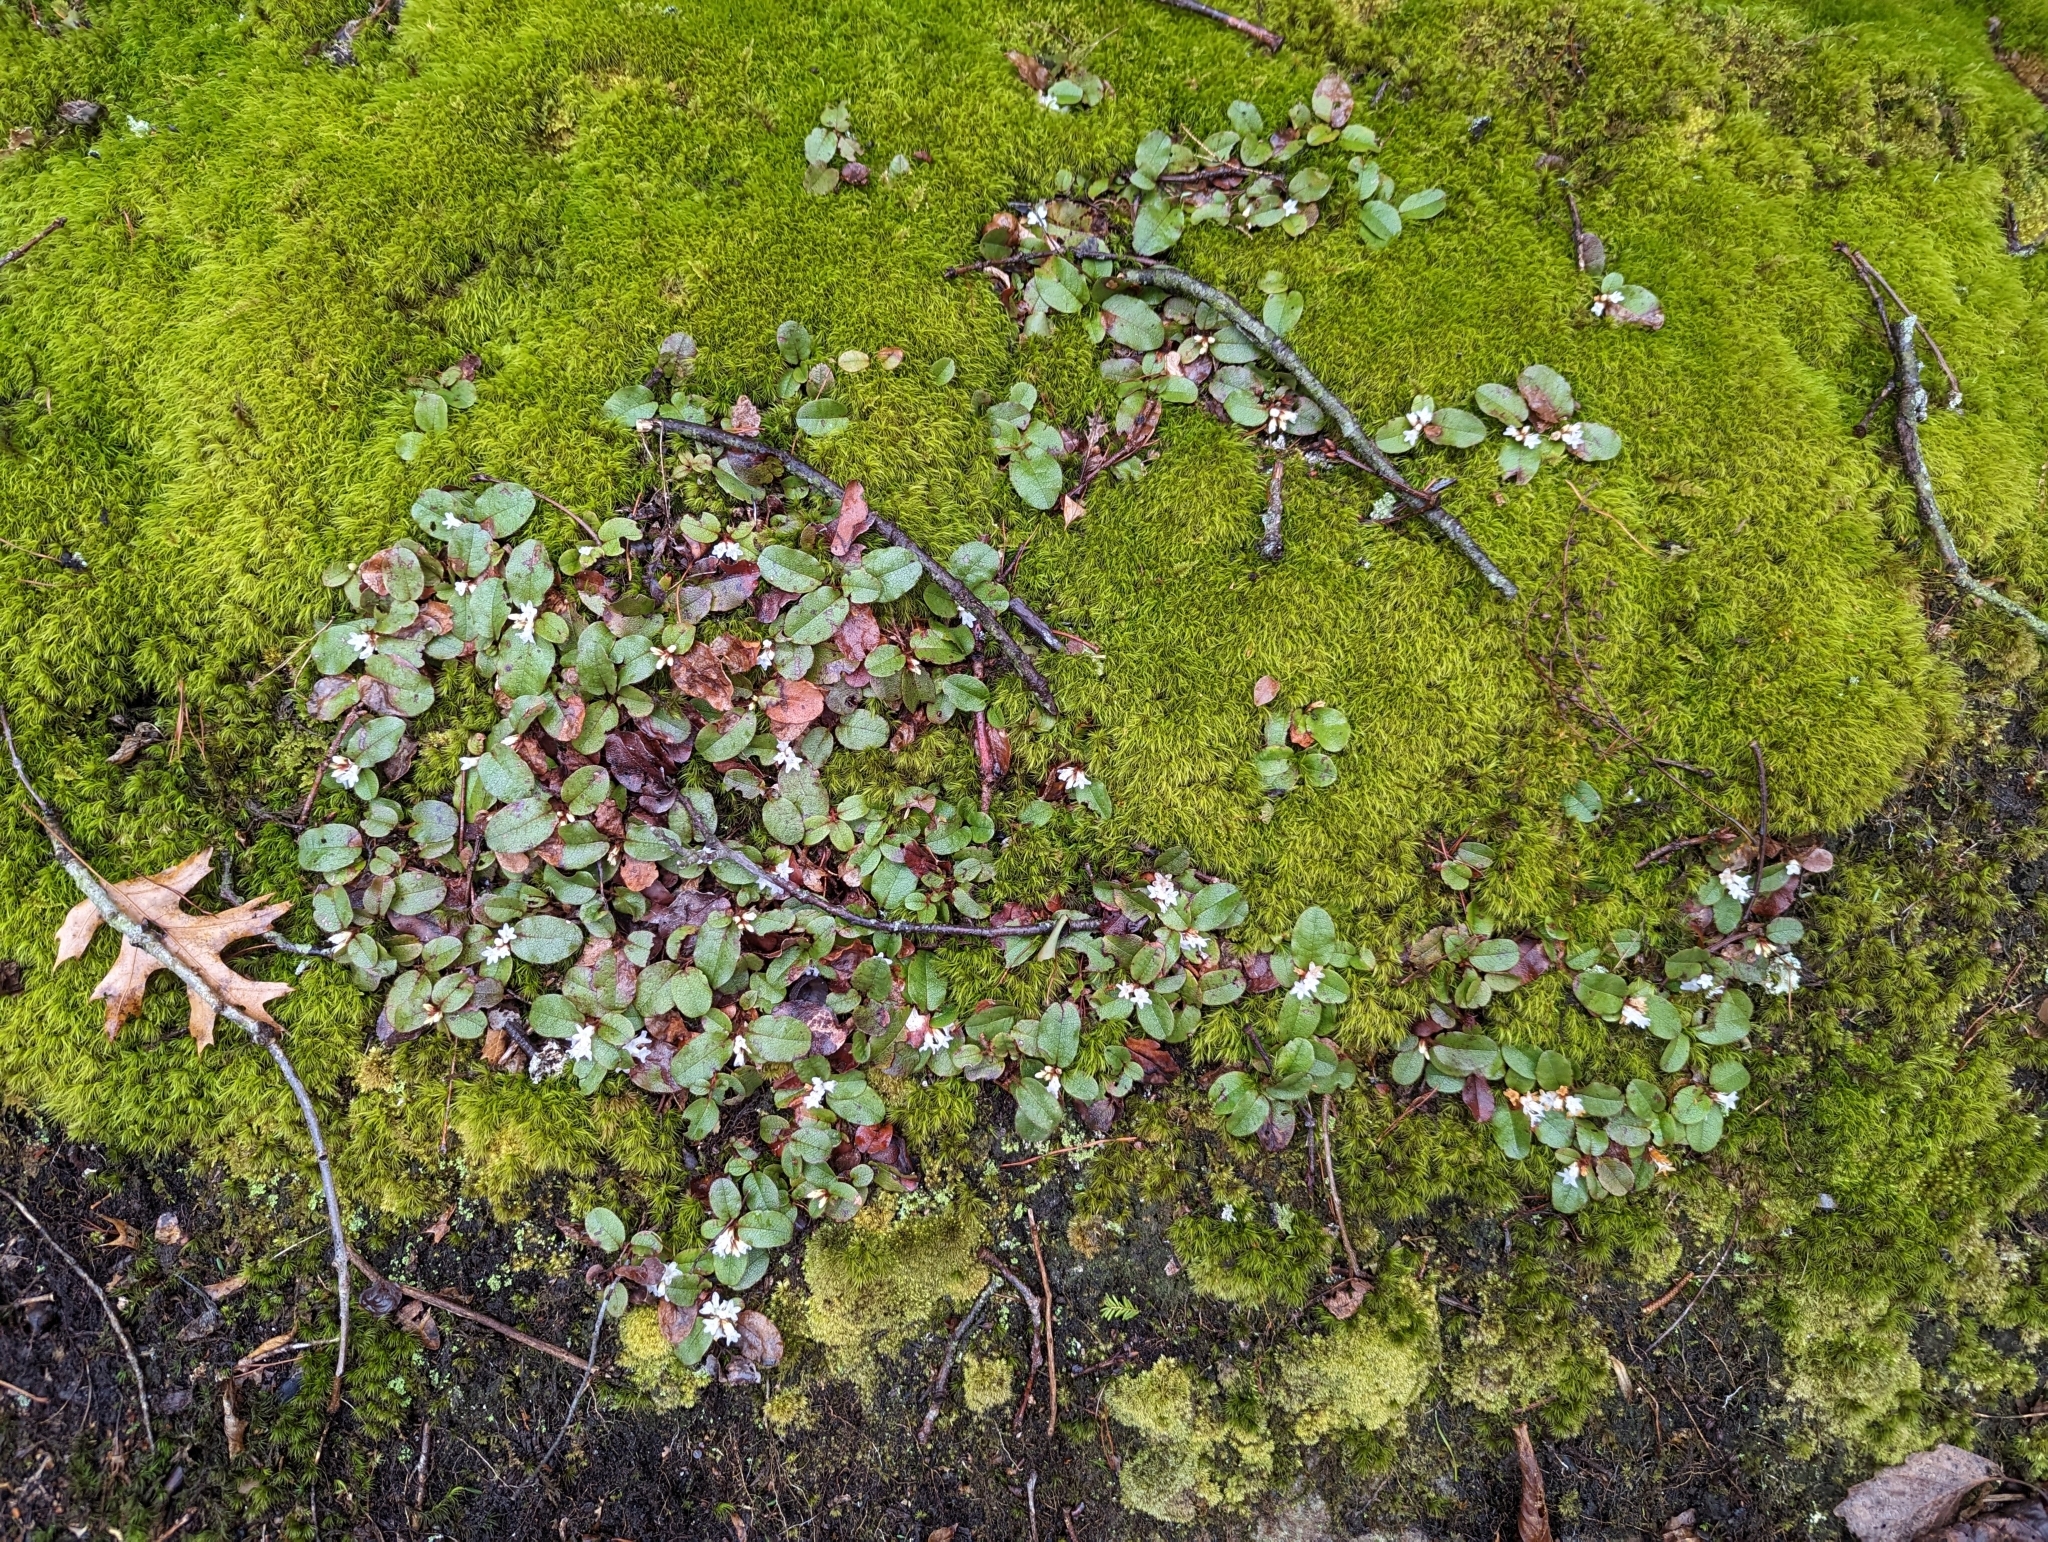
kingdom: Plantae
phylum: Tracheophyta
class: Magnoliopsida
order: Ericales
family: Ericaceae
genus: Epigaea
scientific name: Epigaea repens
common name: Gravelroot
